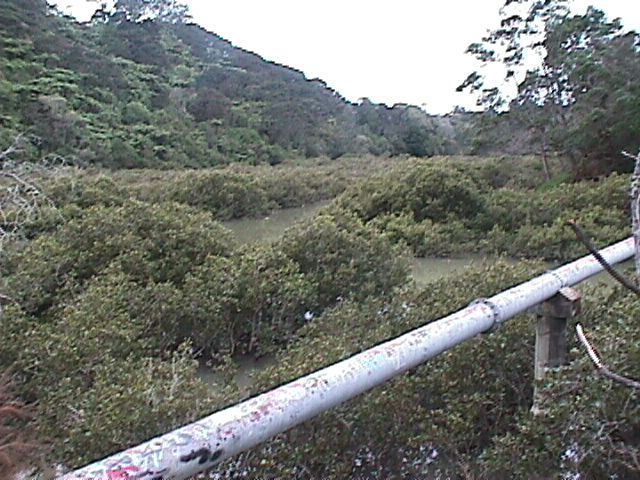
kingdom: Plantae
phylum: Tracheophyta
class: Magnoliopsida
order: Lamiales
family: Acanthaceae
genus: Avicennia
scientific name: Avicennia marina
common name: Gray mangrove
